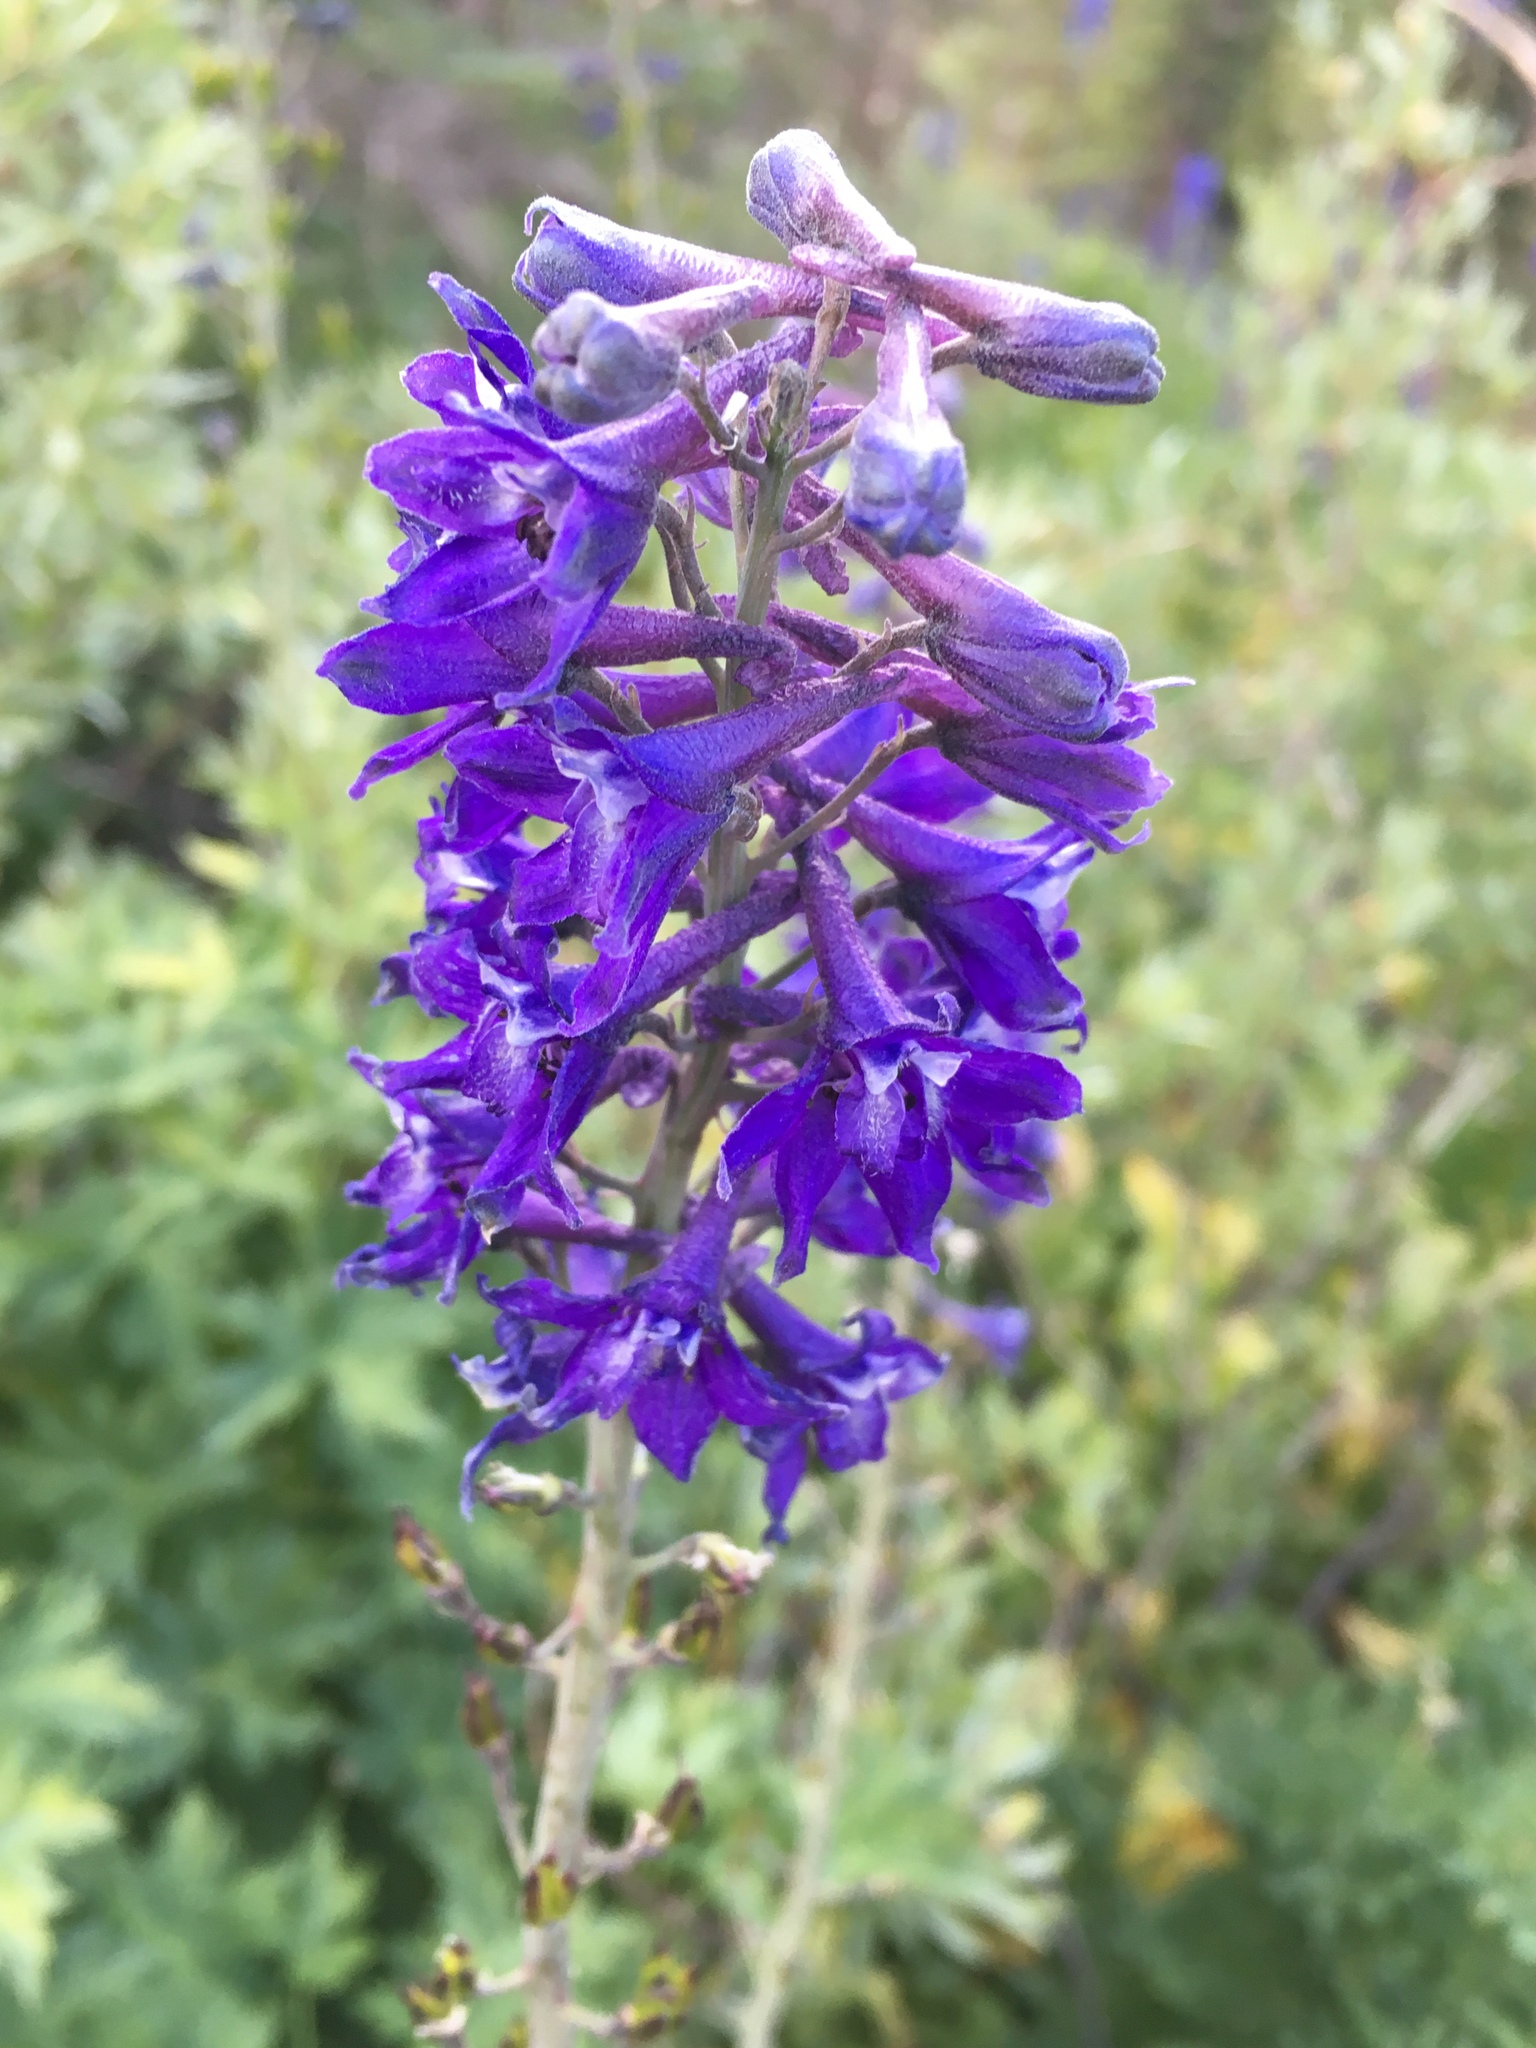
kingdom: Plantae
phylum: Tracheophyta
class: Magnoliopsida
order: Ranunculales
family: Ranunculaceae
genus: Delphinium
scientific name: Delphinium glaucum
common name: Brown's larkspur
